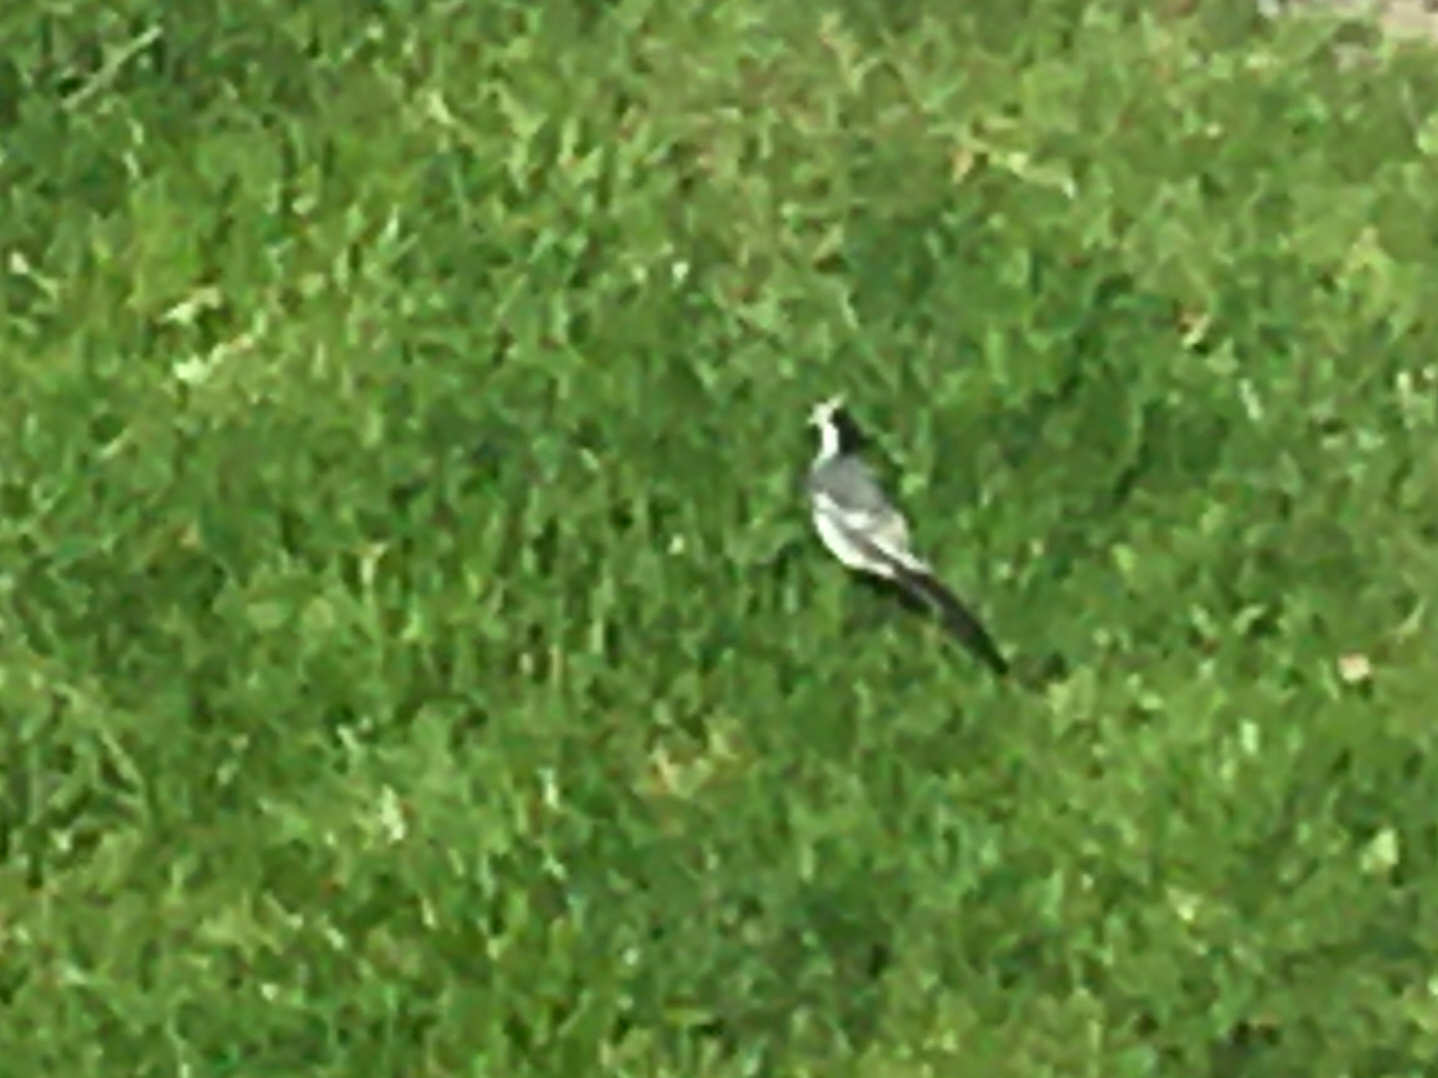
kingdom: Animalia
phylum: Chordata
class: Aves
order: Passeriformes
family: Motacillidae
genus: Motacilla
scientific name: Motacilla alba
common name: White wagtail
